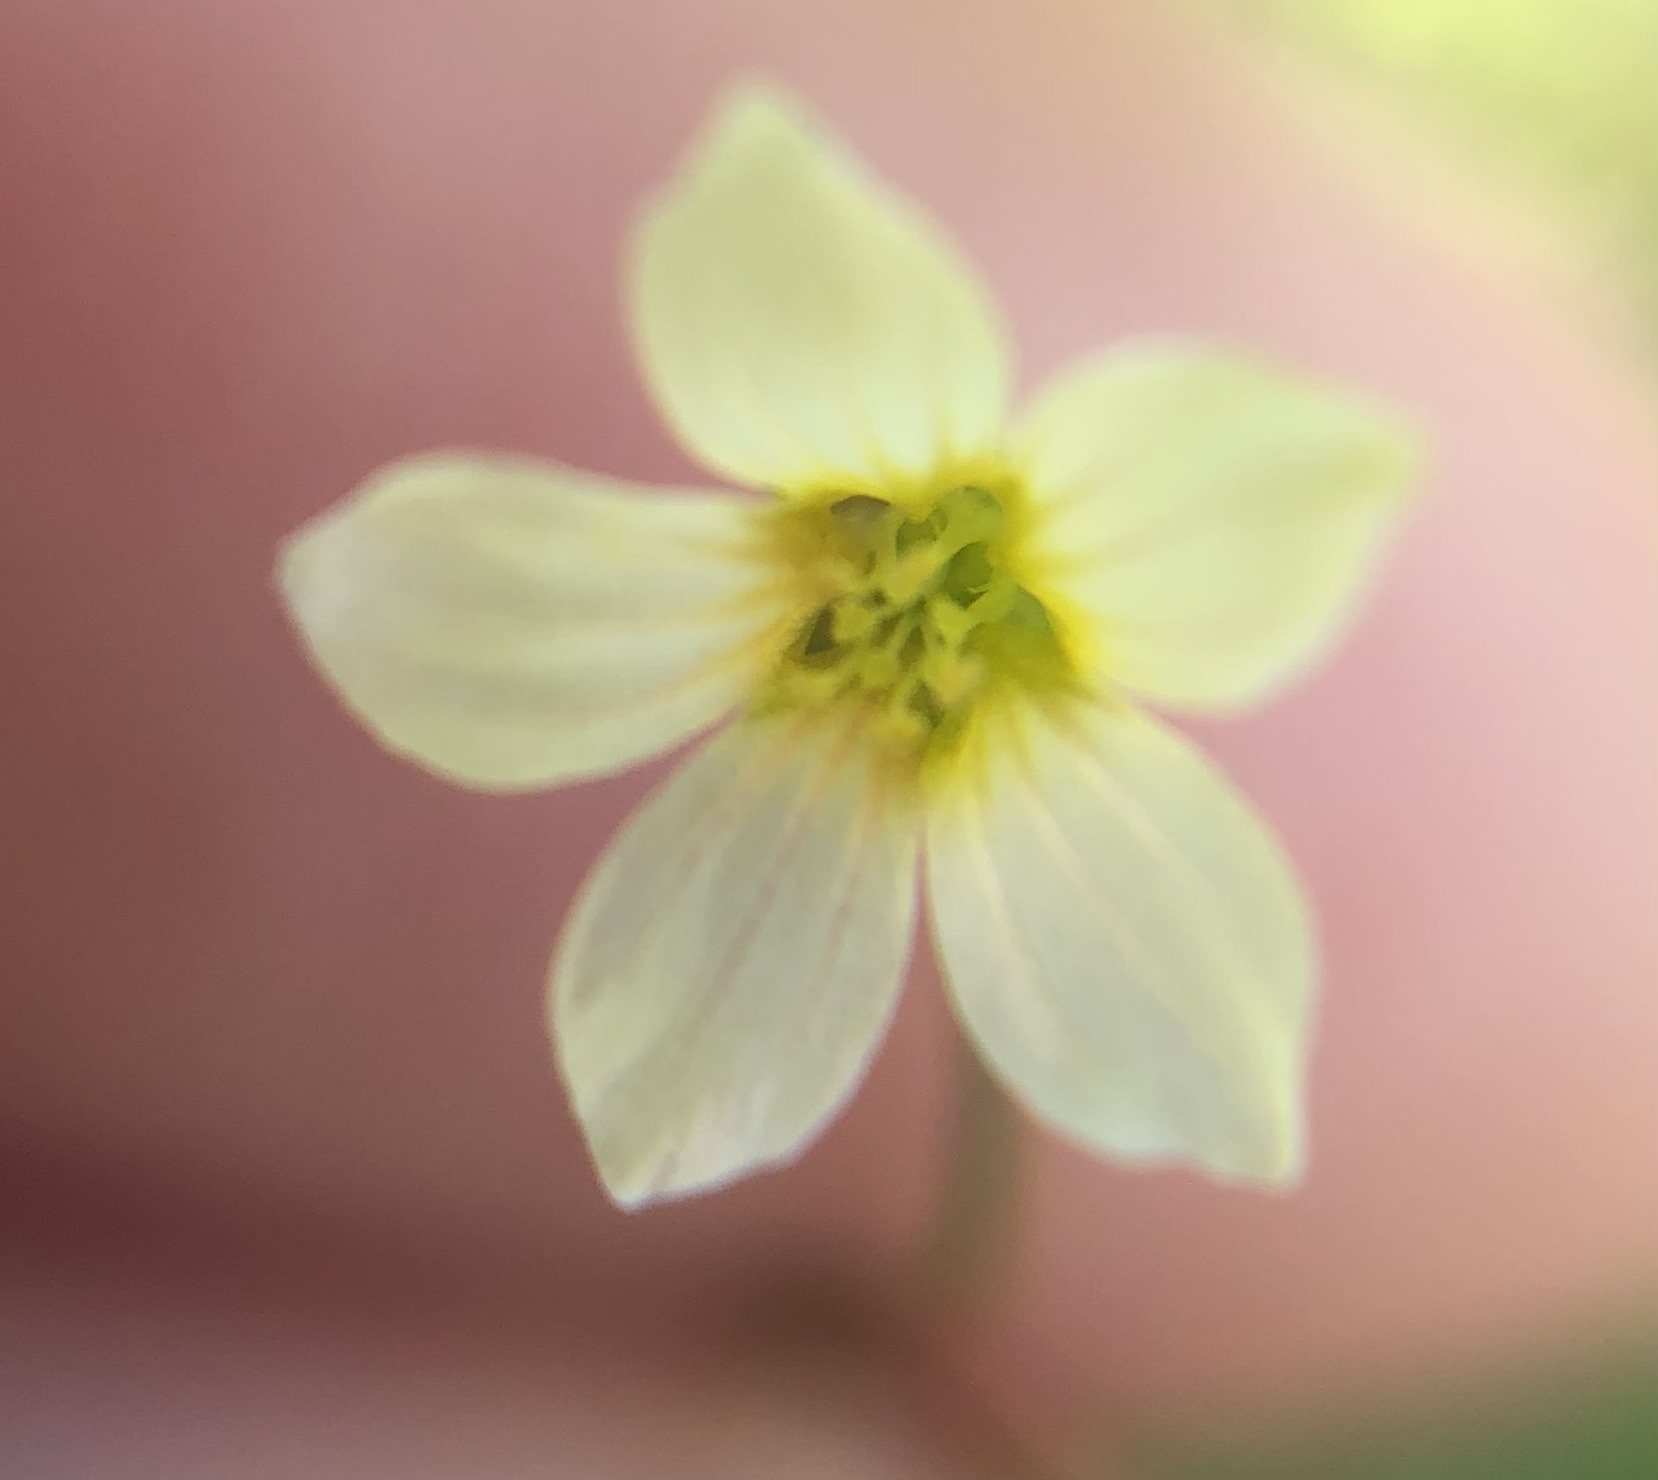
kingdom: Plantae
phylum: Tracheophyta
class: Magnoliopsida
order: Malpighiales
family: Linaceae
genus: Linum
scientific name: Linum catharticum
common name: Fairy flax
